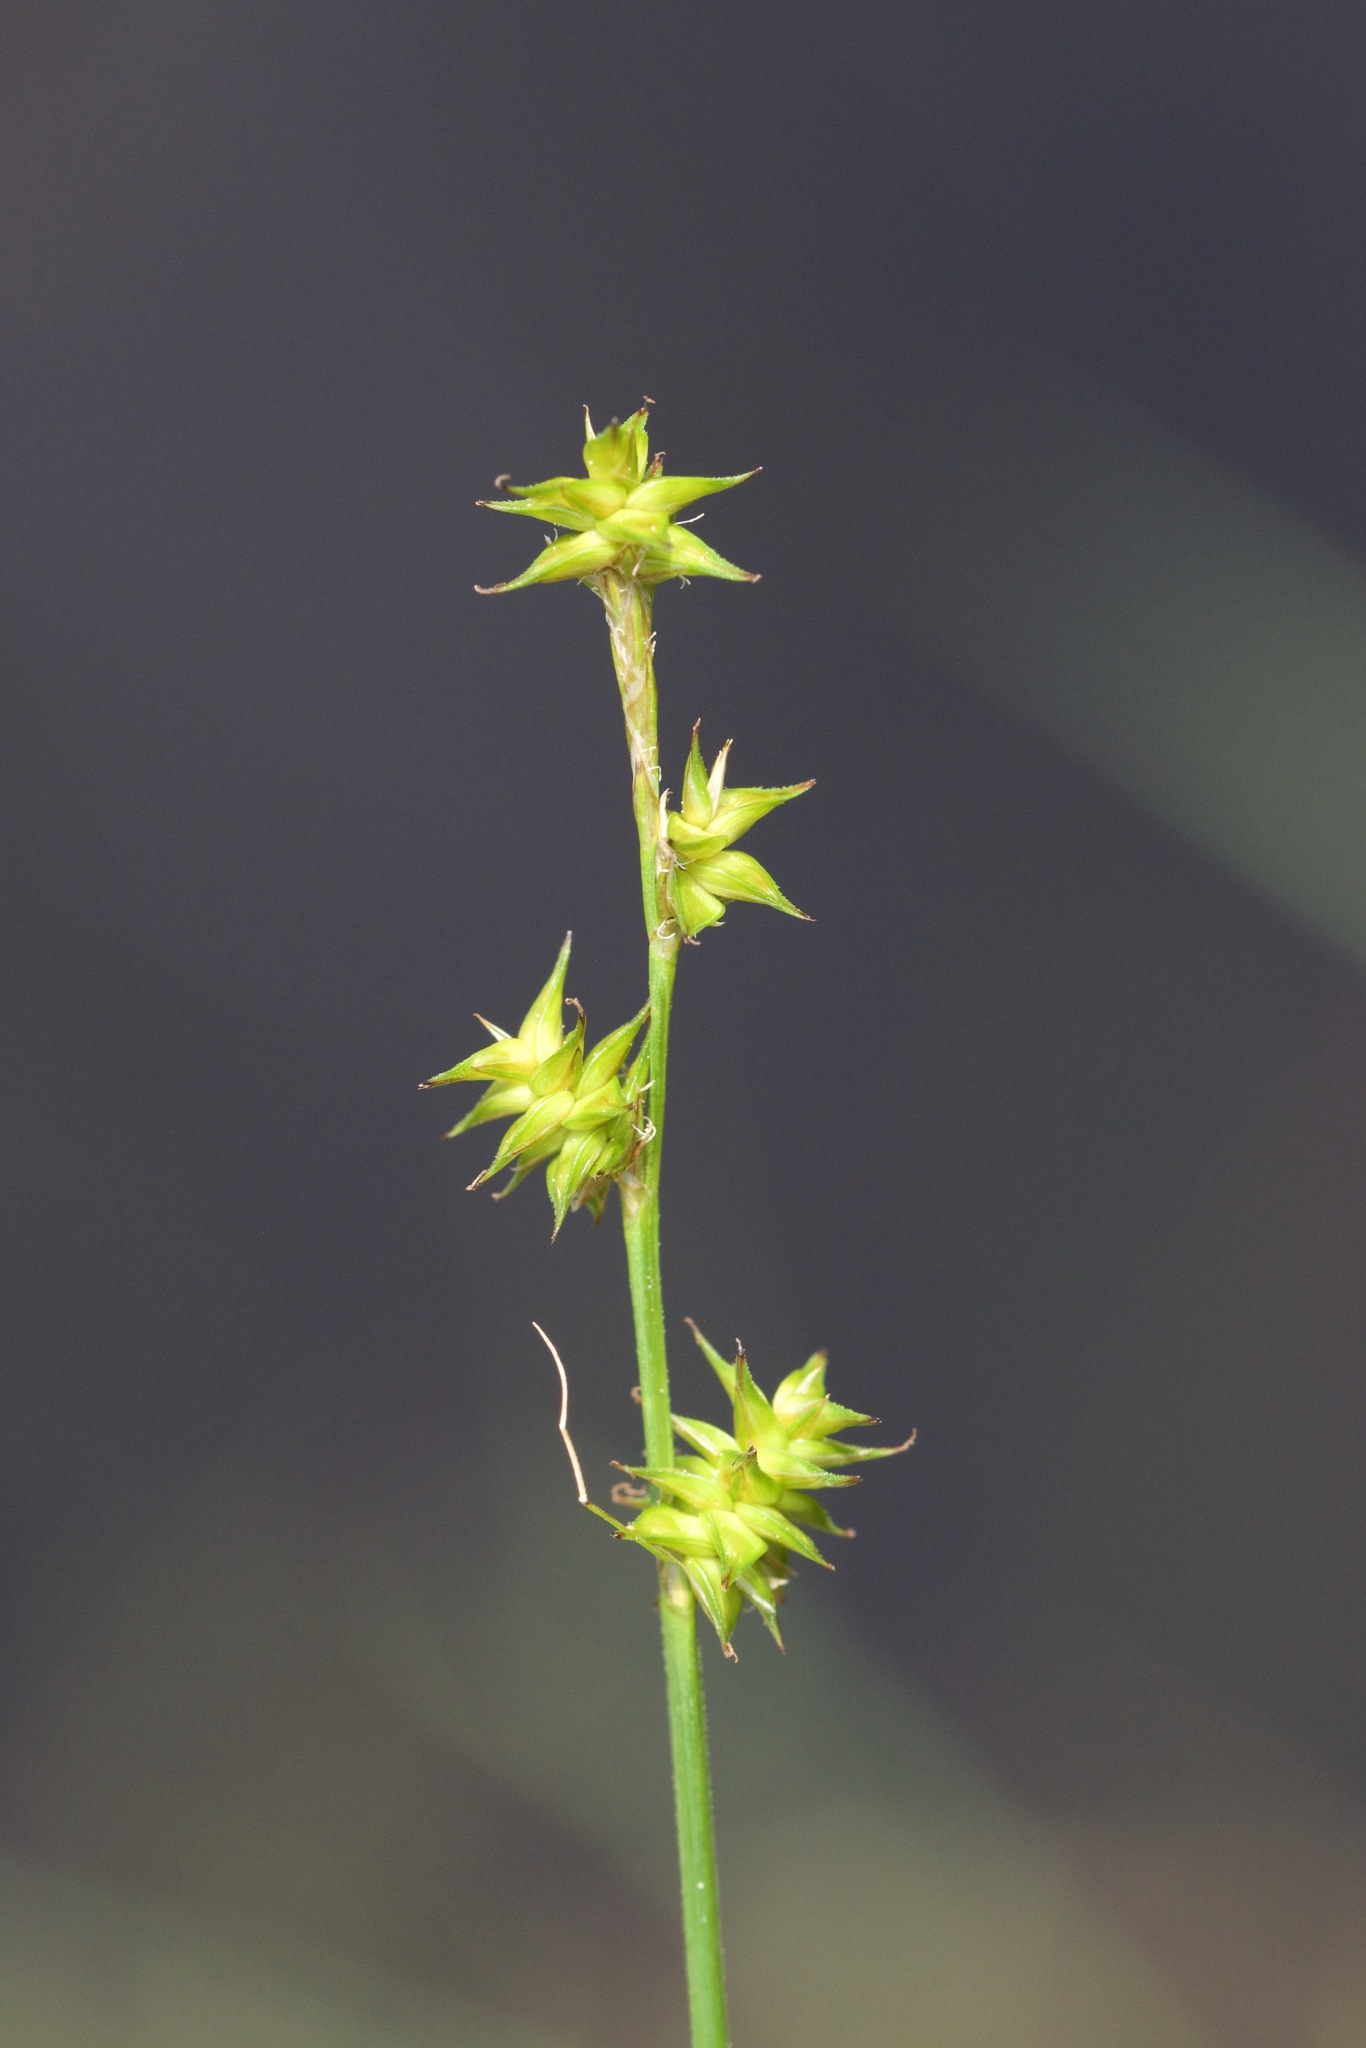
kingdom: Plantae
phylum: Tracheophyta
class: Liliopsida
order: Poales
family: Cyperaceae
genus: Carex
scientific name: Carex echinata
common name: Star sedge
